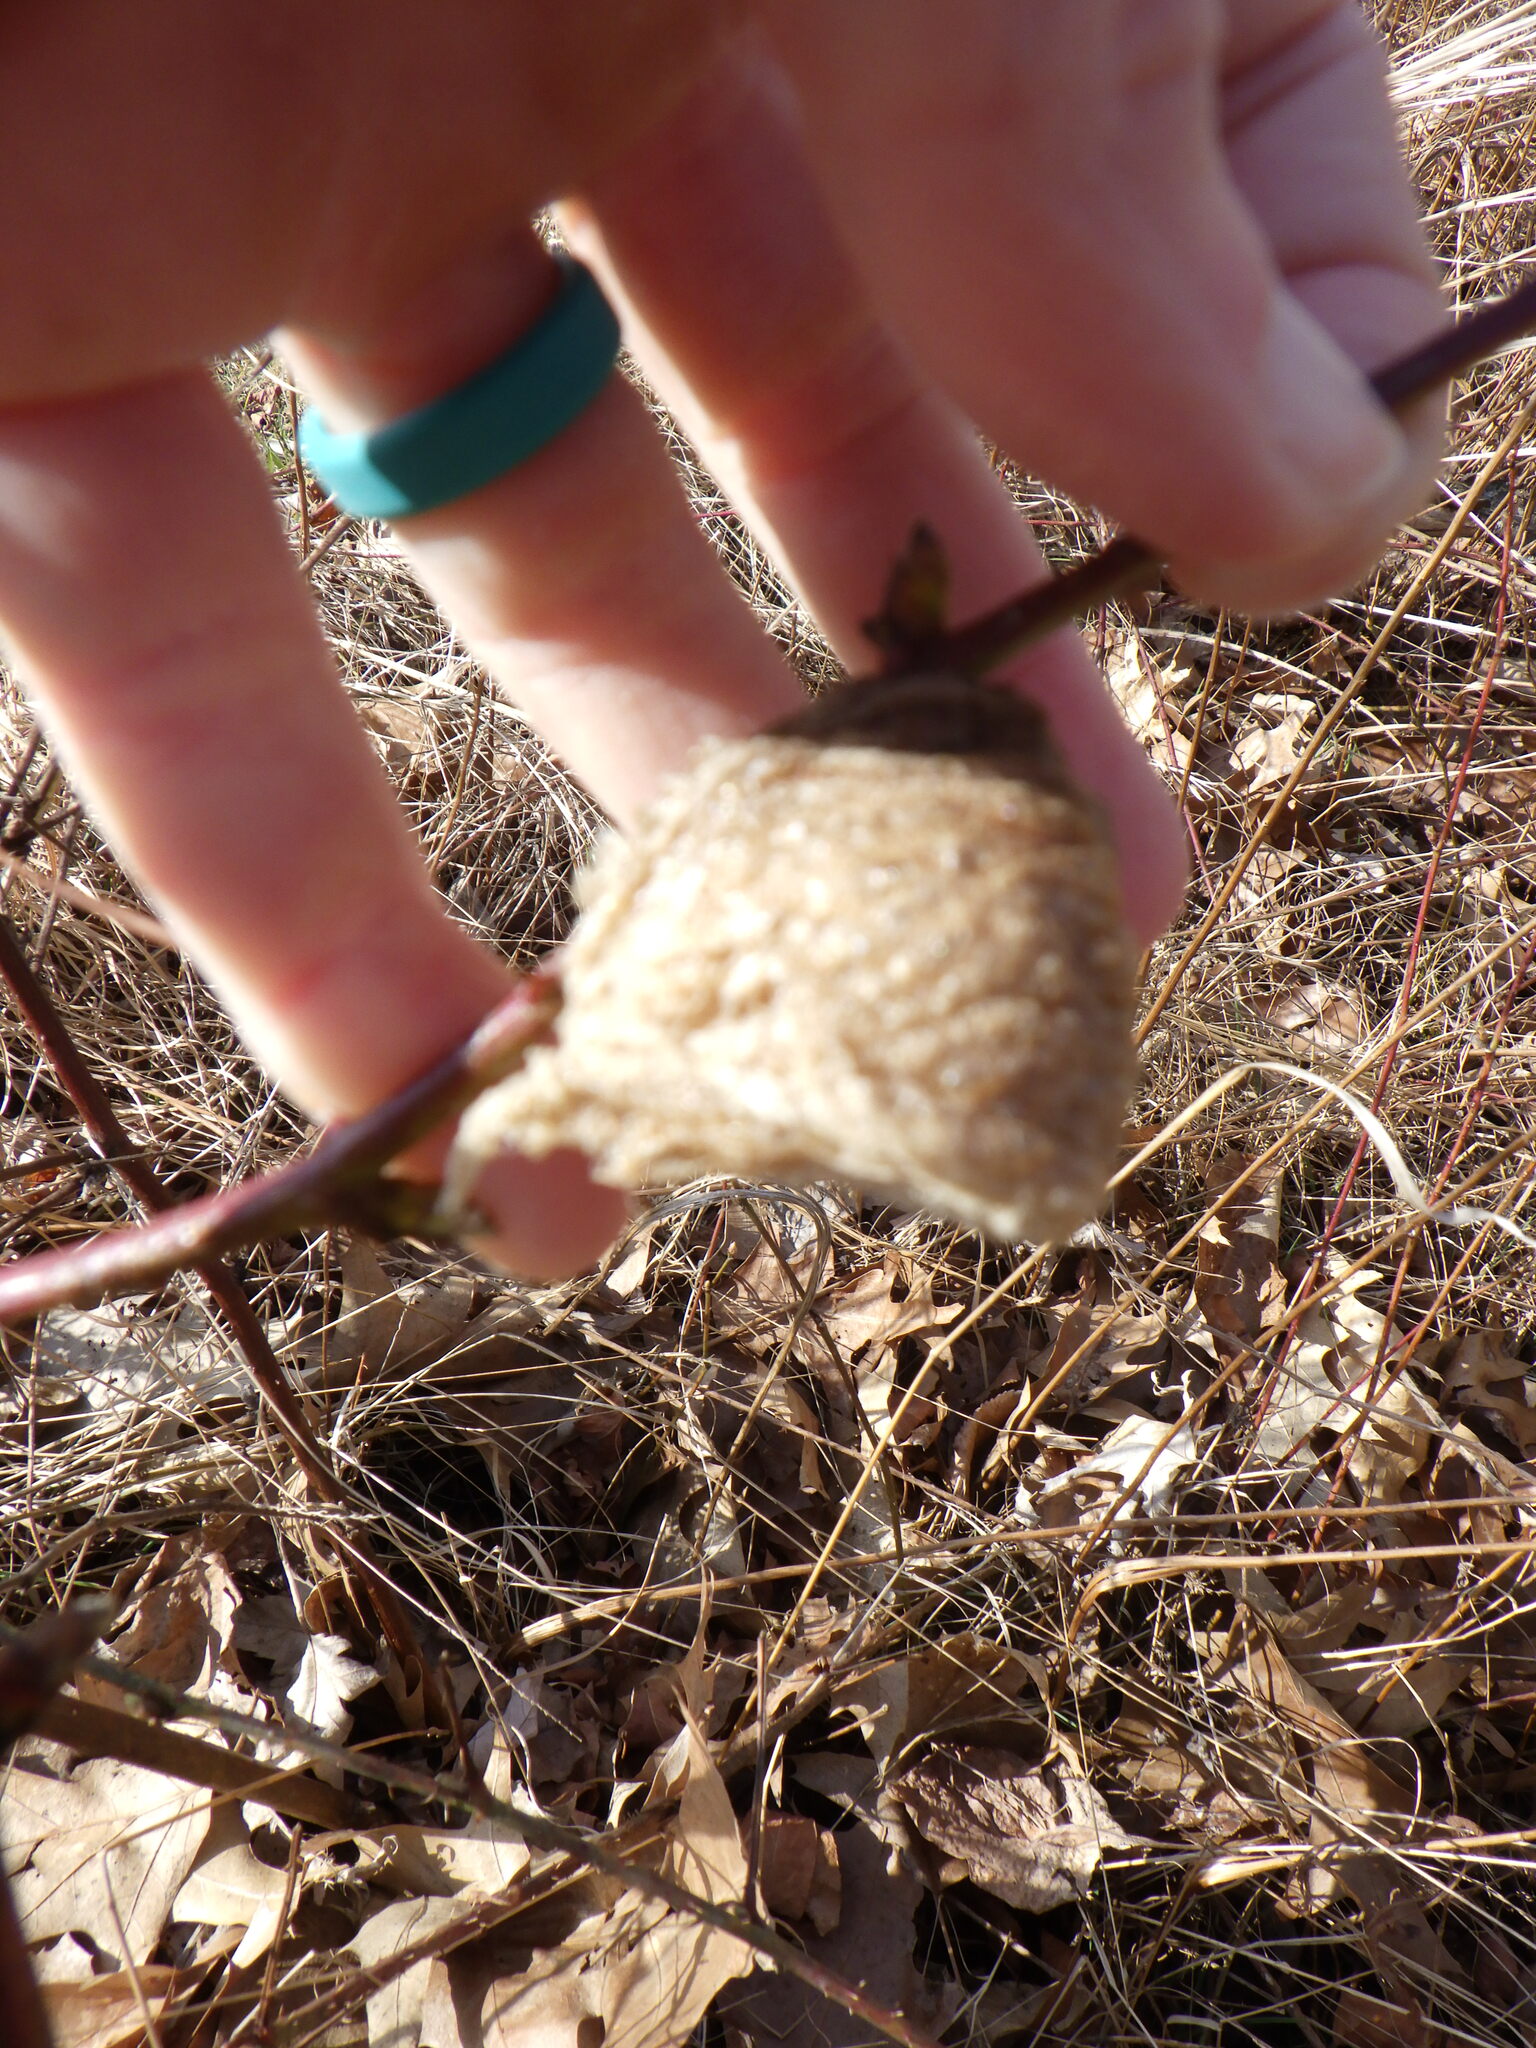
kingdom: Animalia
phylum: Arthropoda
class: Insecta
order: Mantodea
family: Mantidae
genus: Tenodera
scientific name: Tenodera sinensis
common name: Chinese mantis
